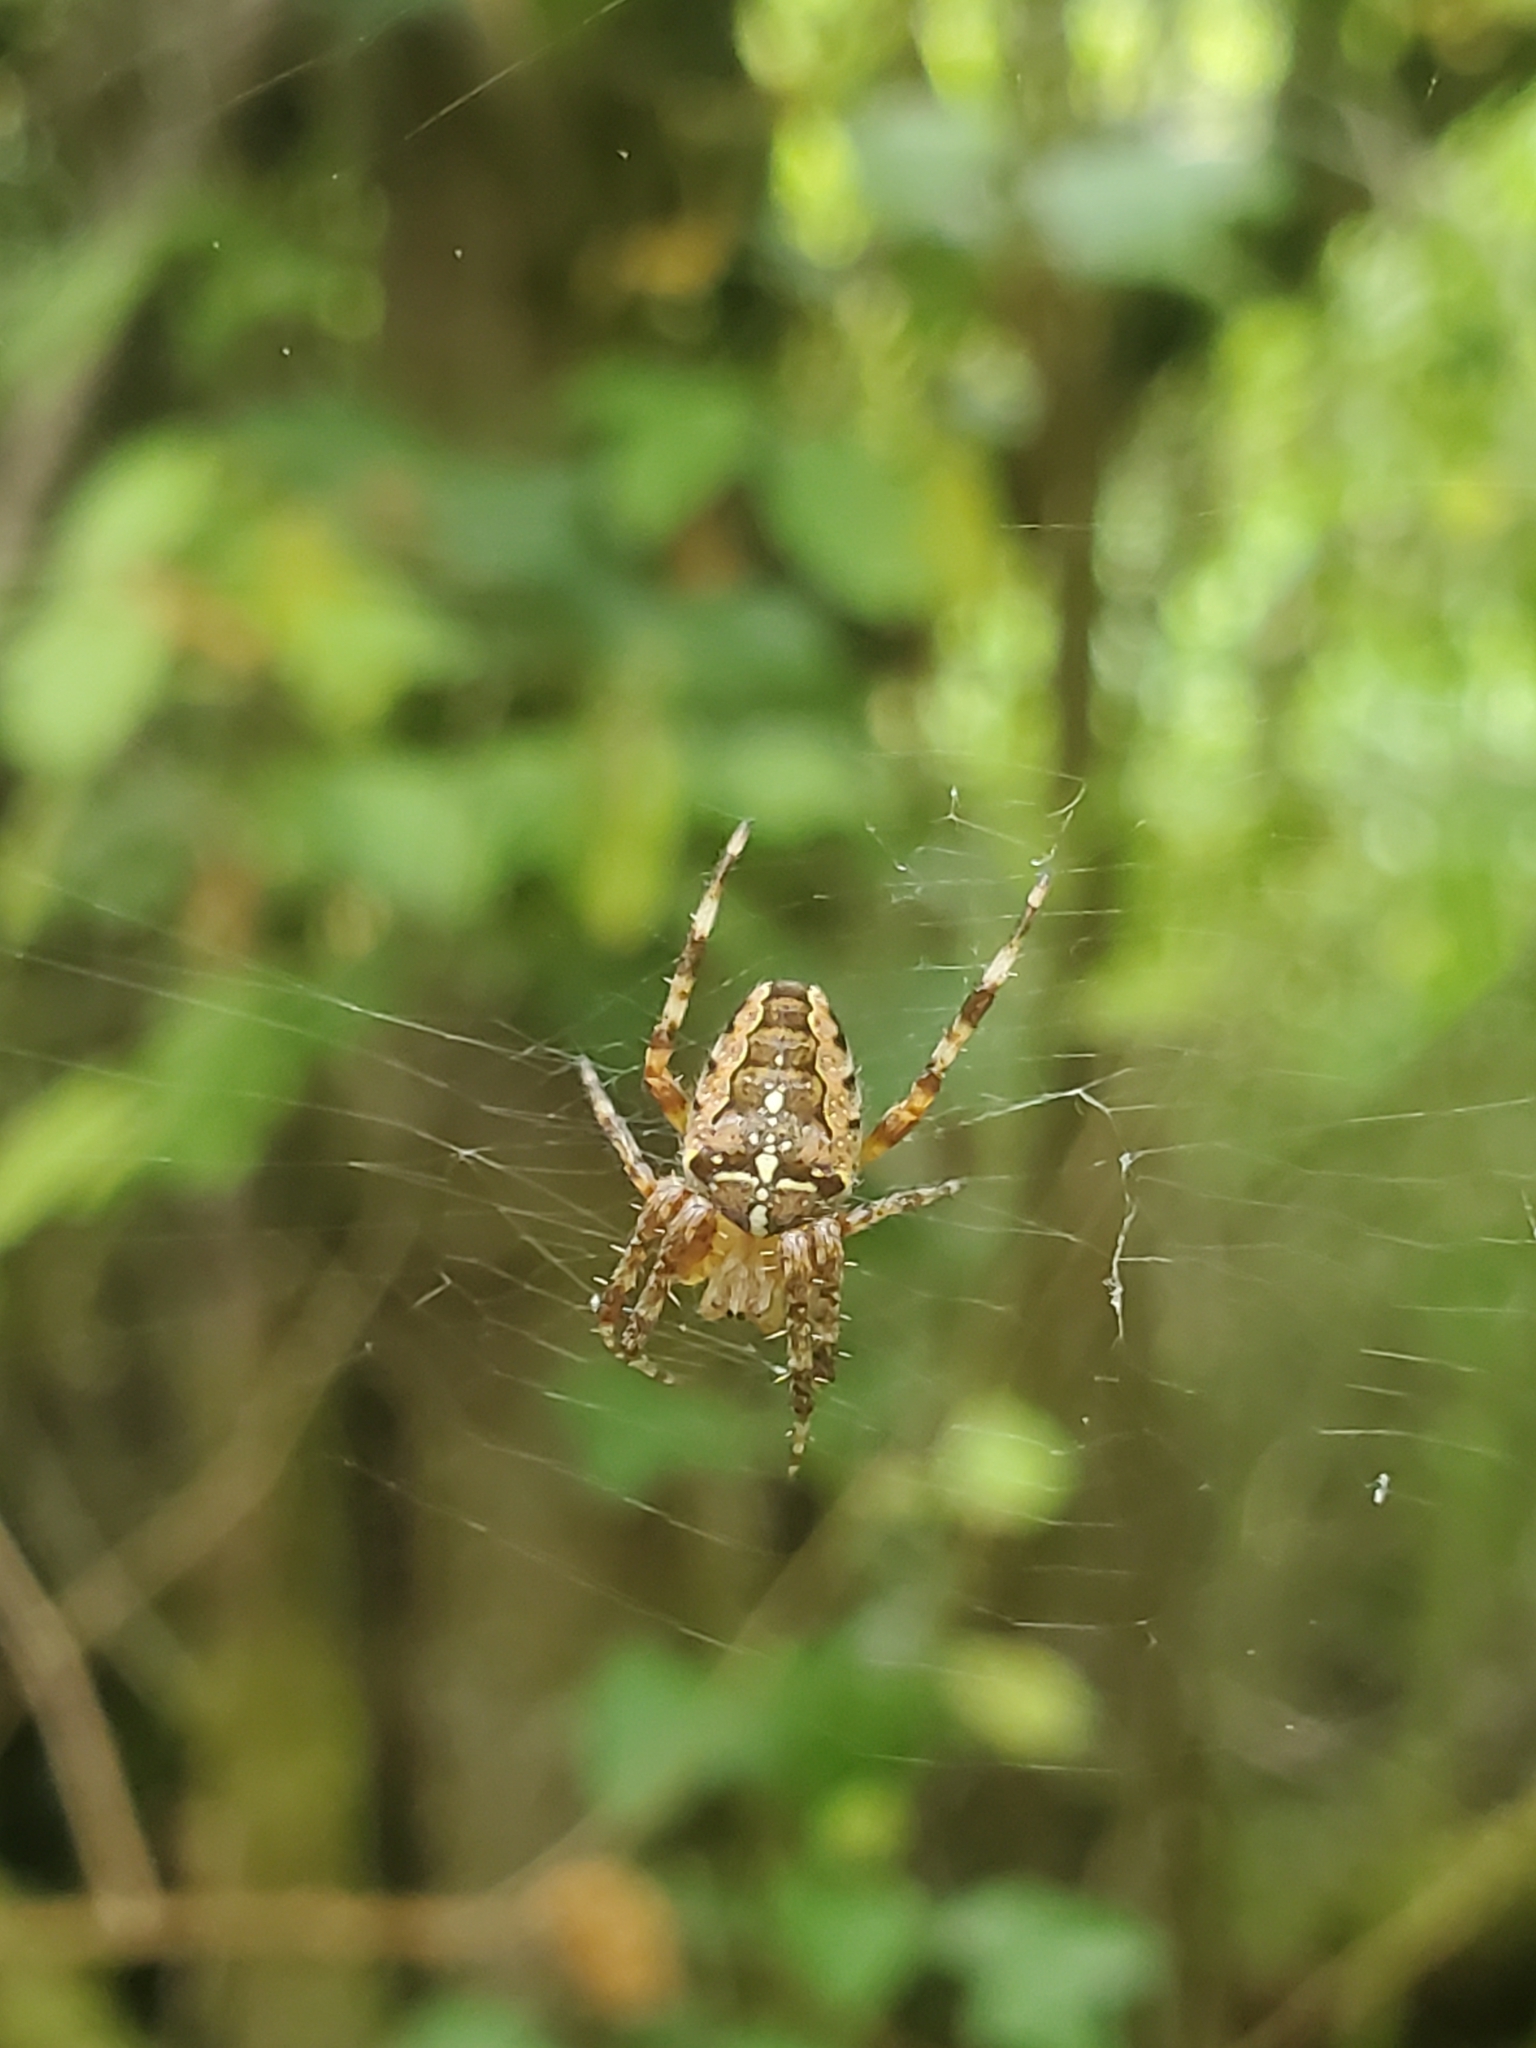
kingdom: Animalia
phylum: Arthropoda
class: Arachnida
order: Araneae
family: Araneidae
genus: Araneus
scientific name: Araneus diadematus
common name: Cross orbweaver
